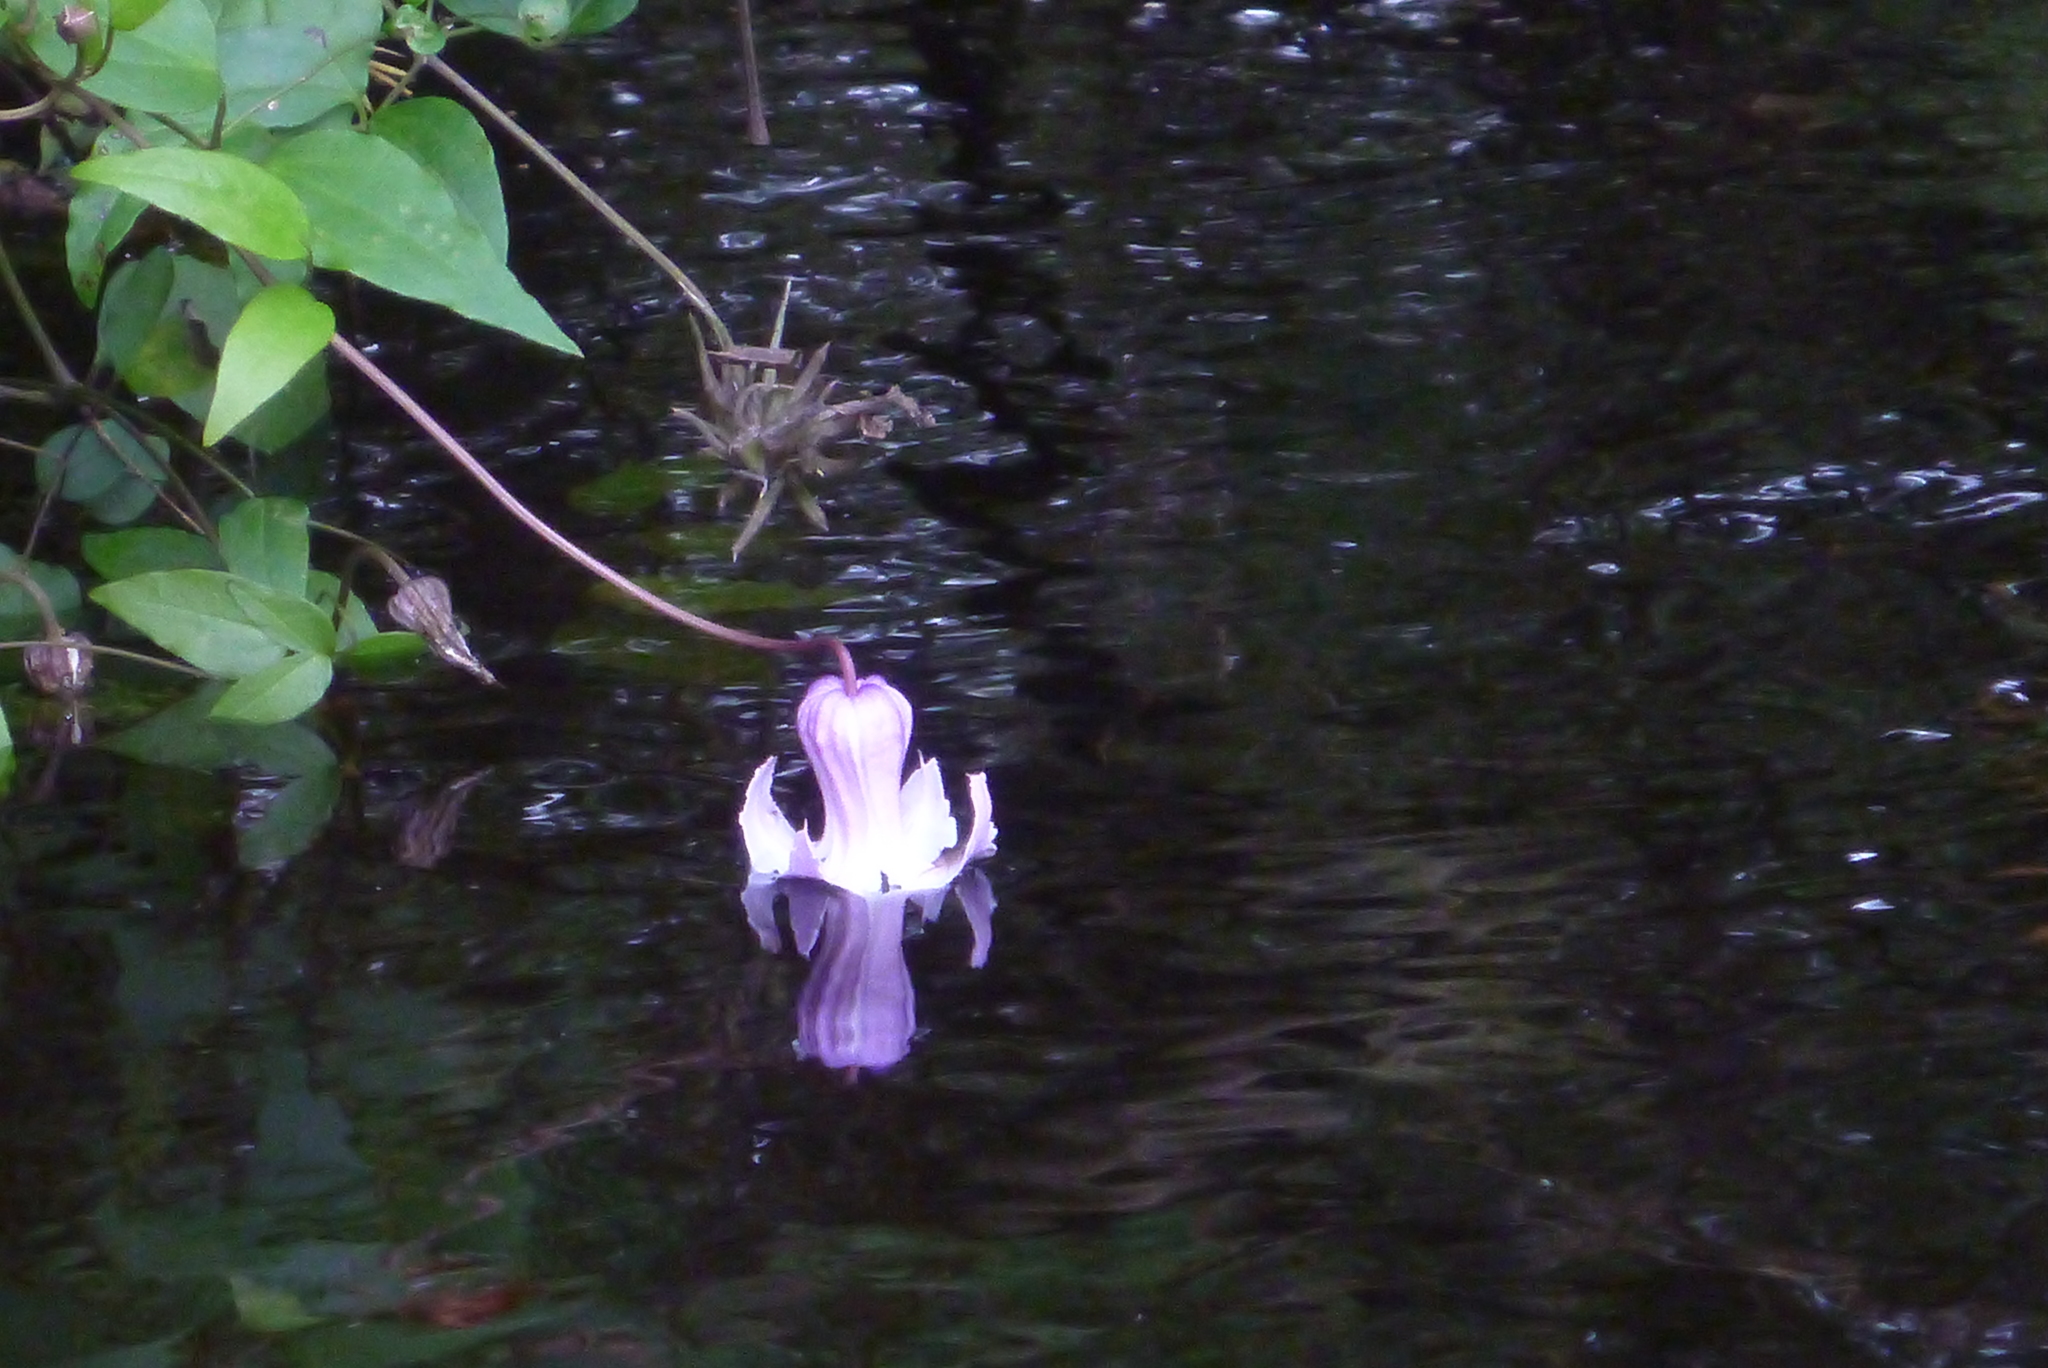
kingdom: Plantae
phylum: Tracheophyta
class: Magnoliopsida
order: Ranunculales
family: Ranunculaceae
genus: Clematis
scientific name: Clematis crispa
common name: Curly clematis
